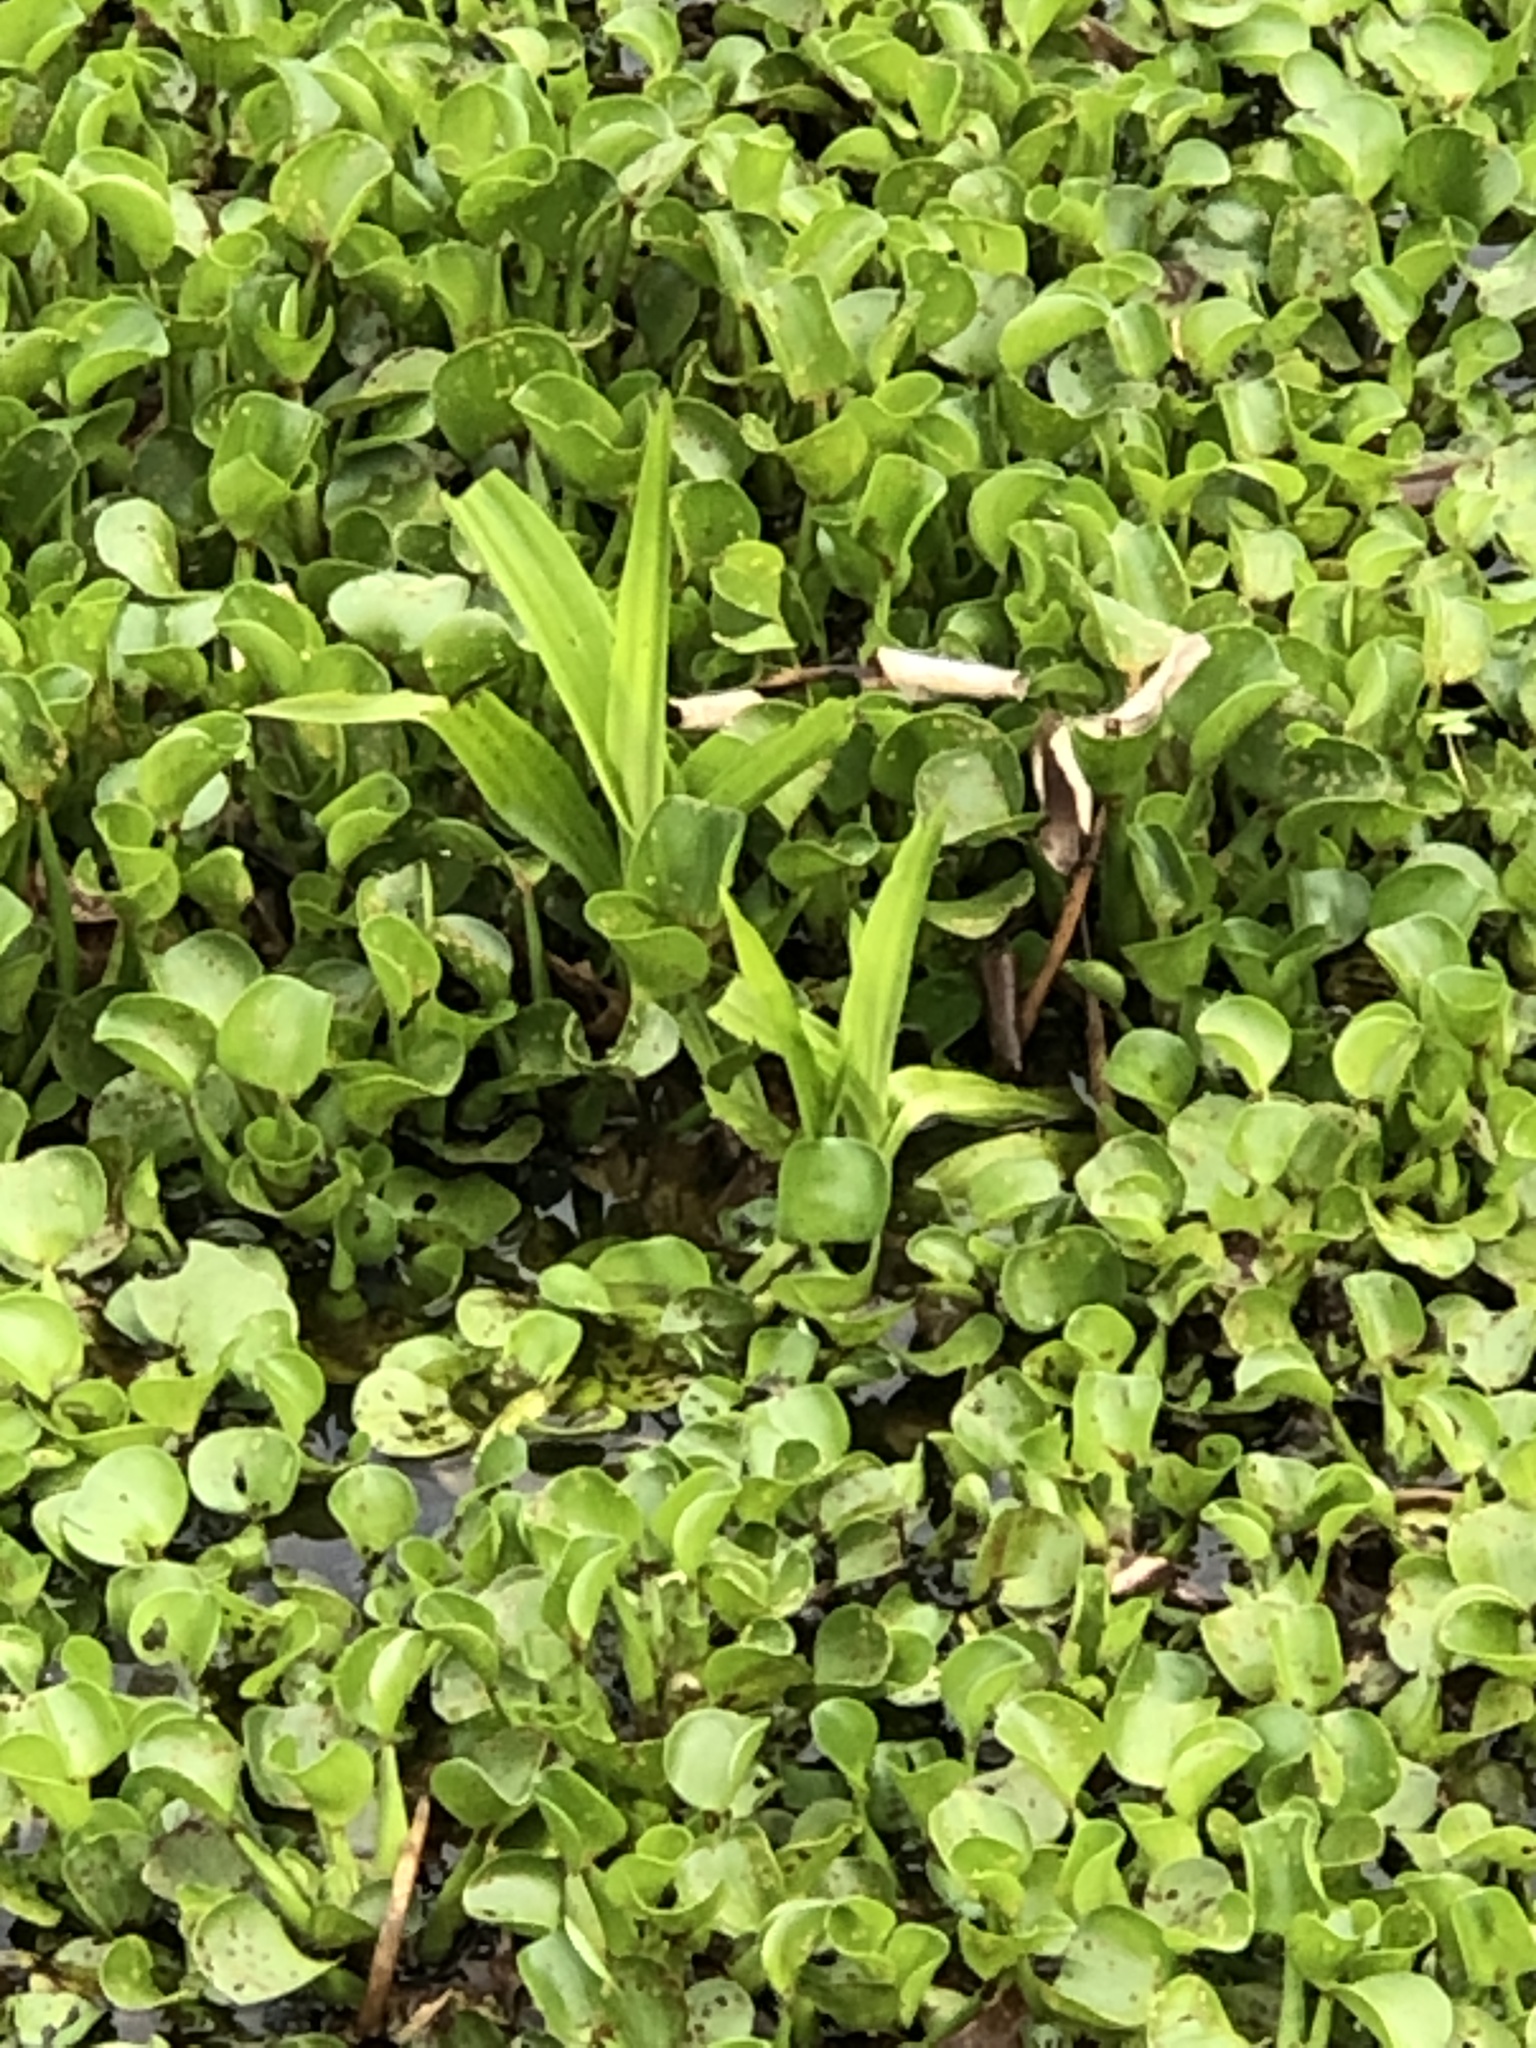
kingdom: Plantae
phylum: Tracheophyta
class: Liliopsida
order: Asparagales
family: Orchidaceae
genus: Habenaria
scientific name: Habenaria repens
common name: Water orchid
